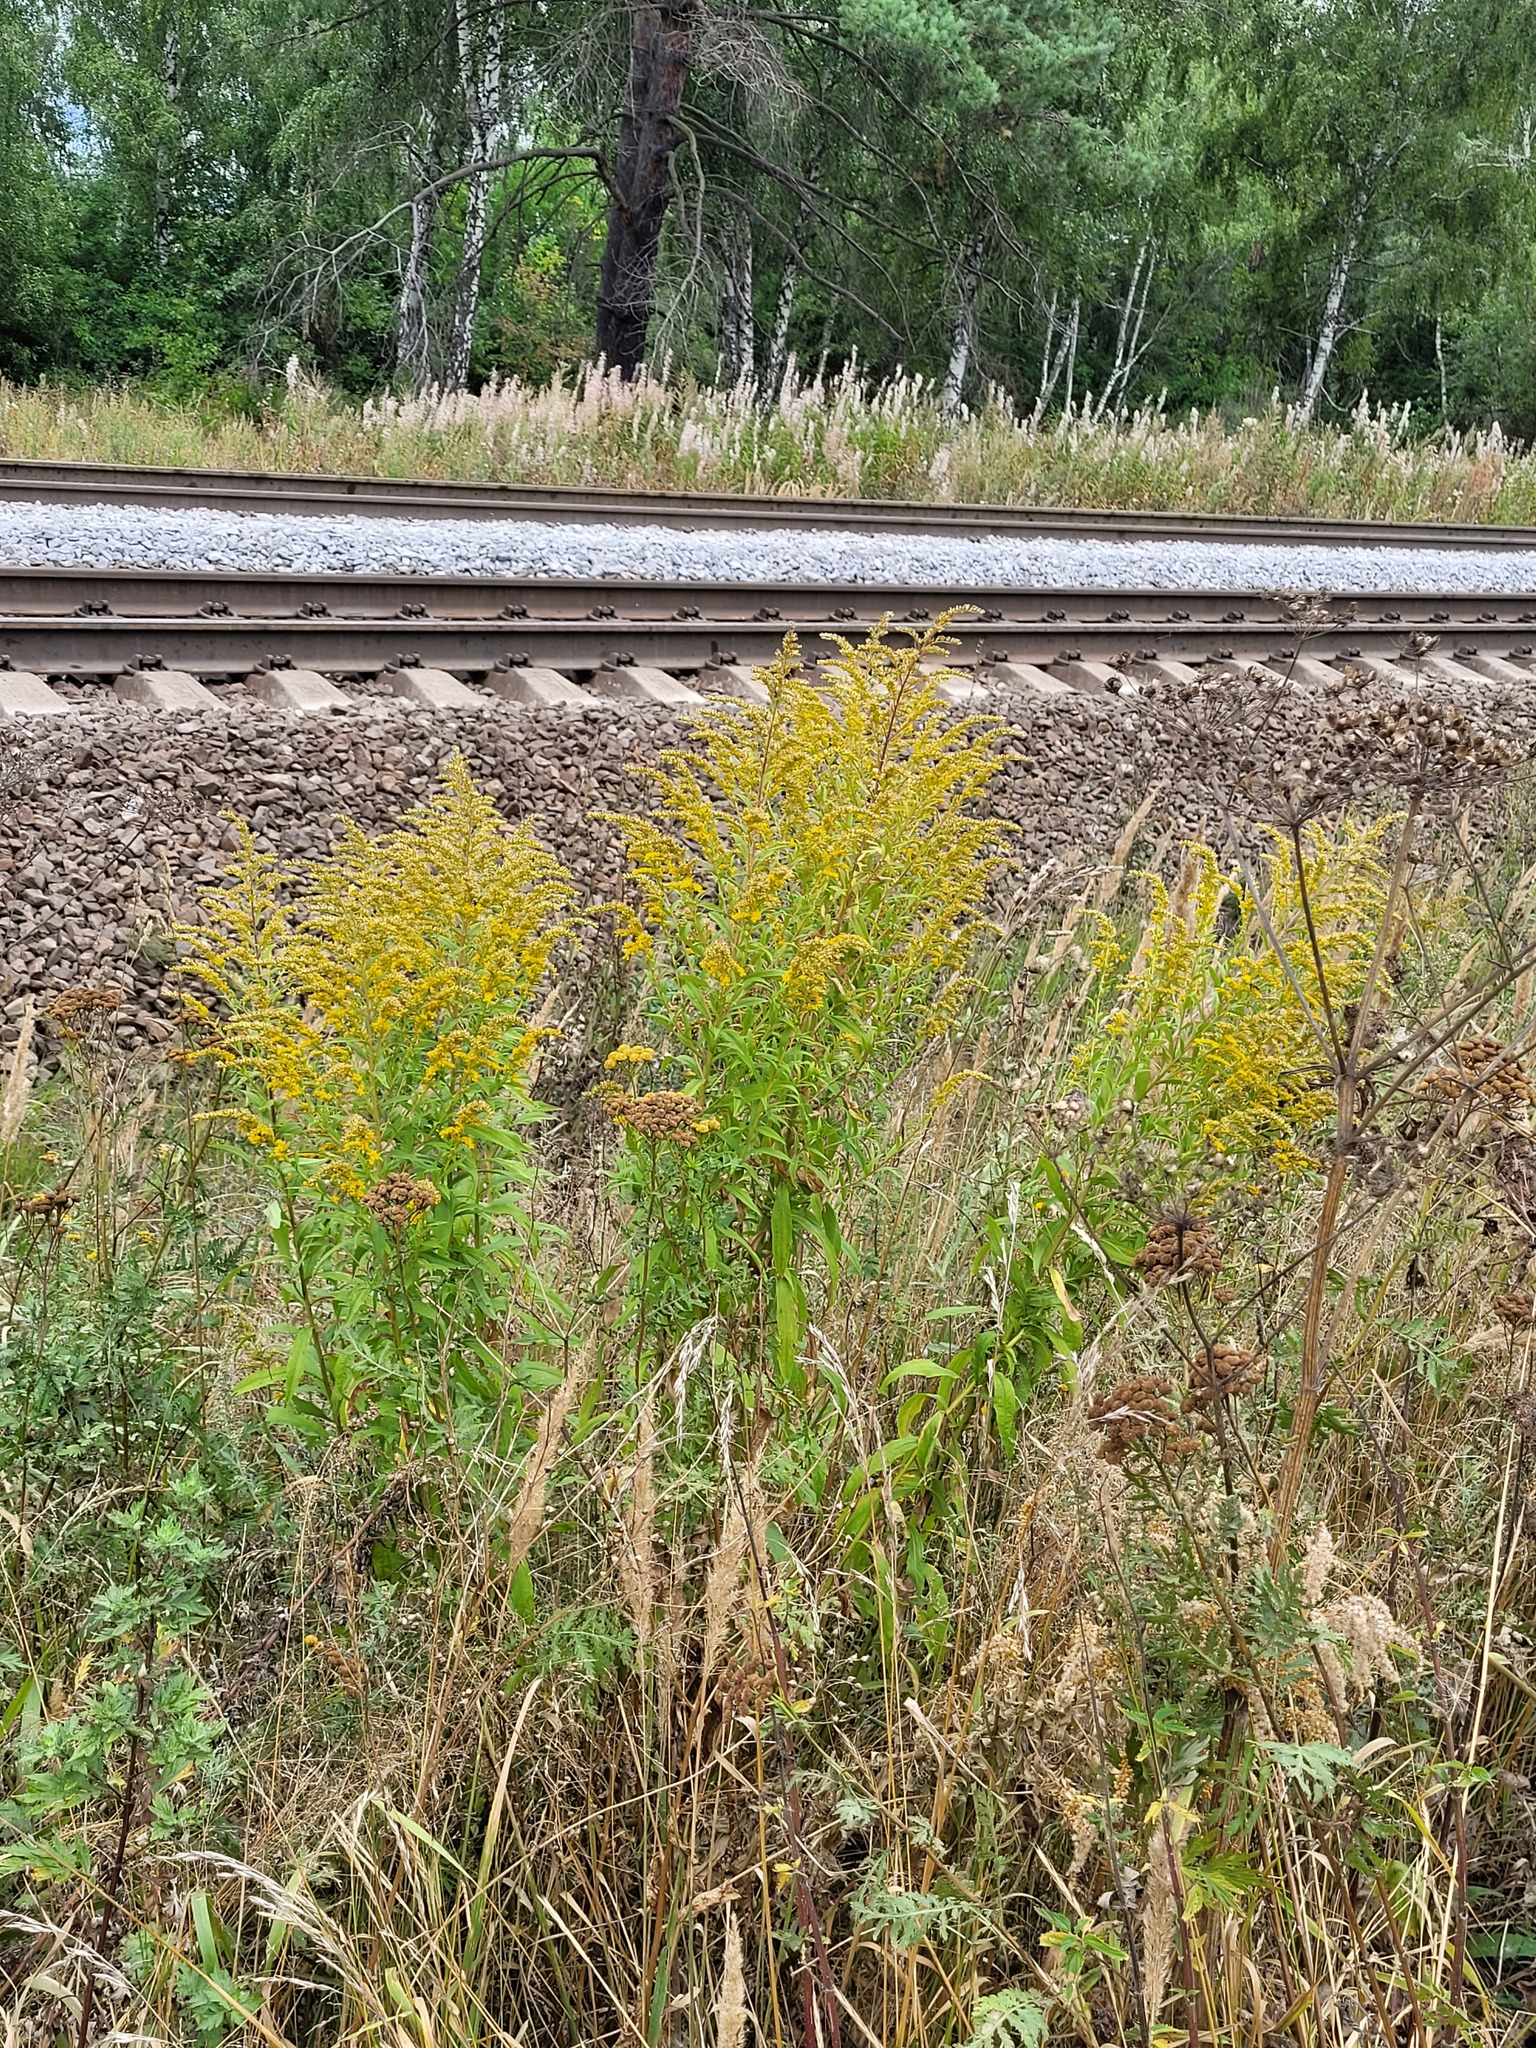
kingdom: Plantae
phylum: Tracheophyta
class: Magnoliopsida
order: Asterales
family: Asteraceae
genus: Solidago
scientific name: Solidago canadensis
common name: Canada goldenrod
